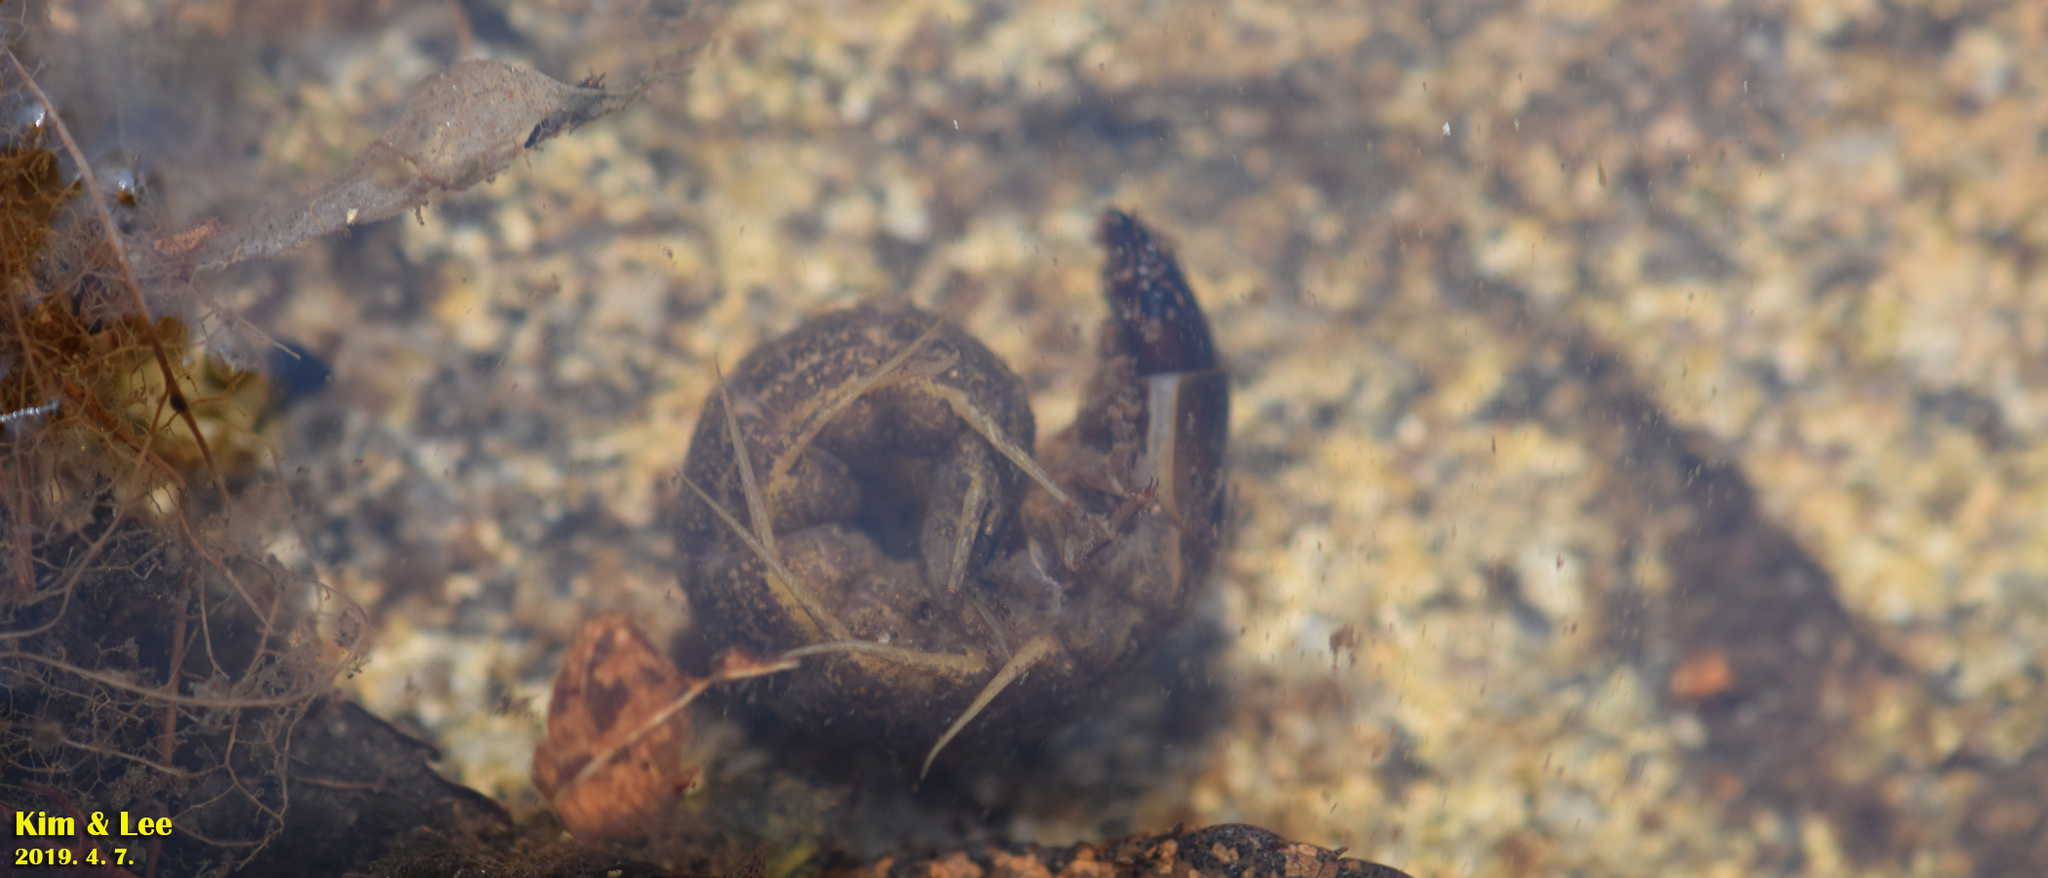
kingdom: Animalia
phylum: Arthropoda
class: Insecta
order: Megaloptera
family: Corydalidae
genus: Parachauliodes
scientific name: Parachauliodes asahinai
